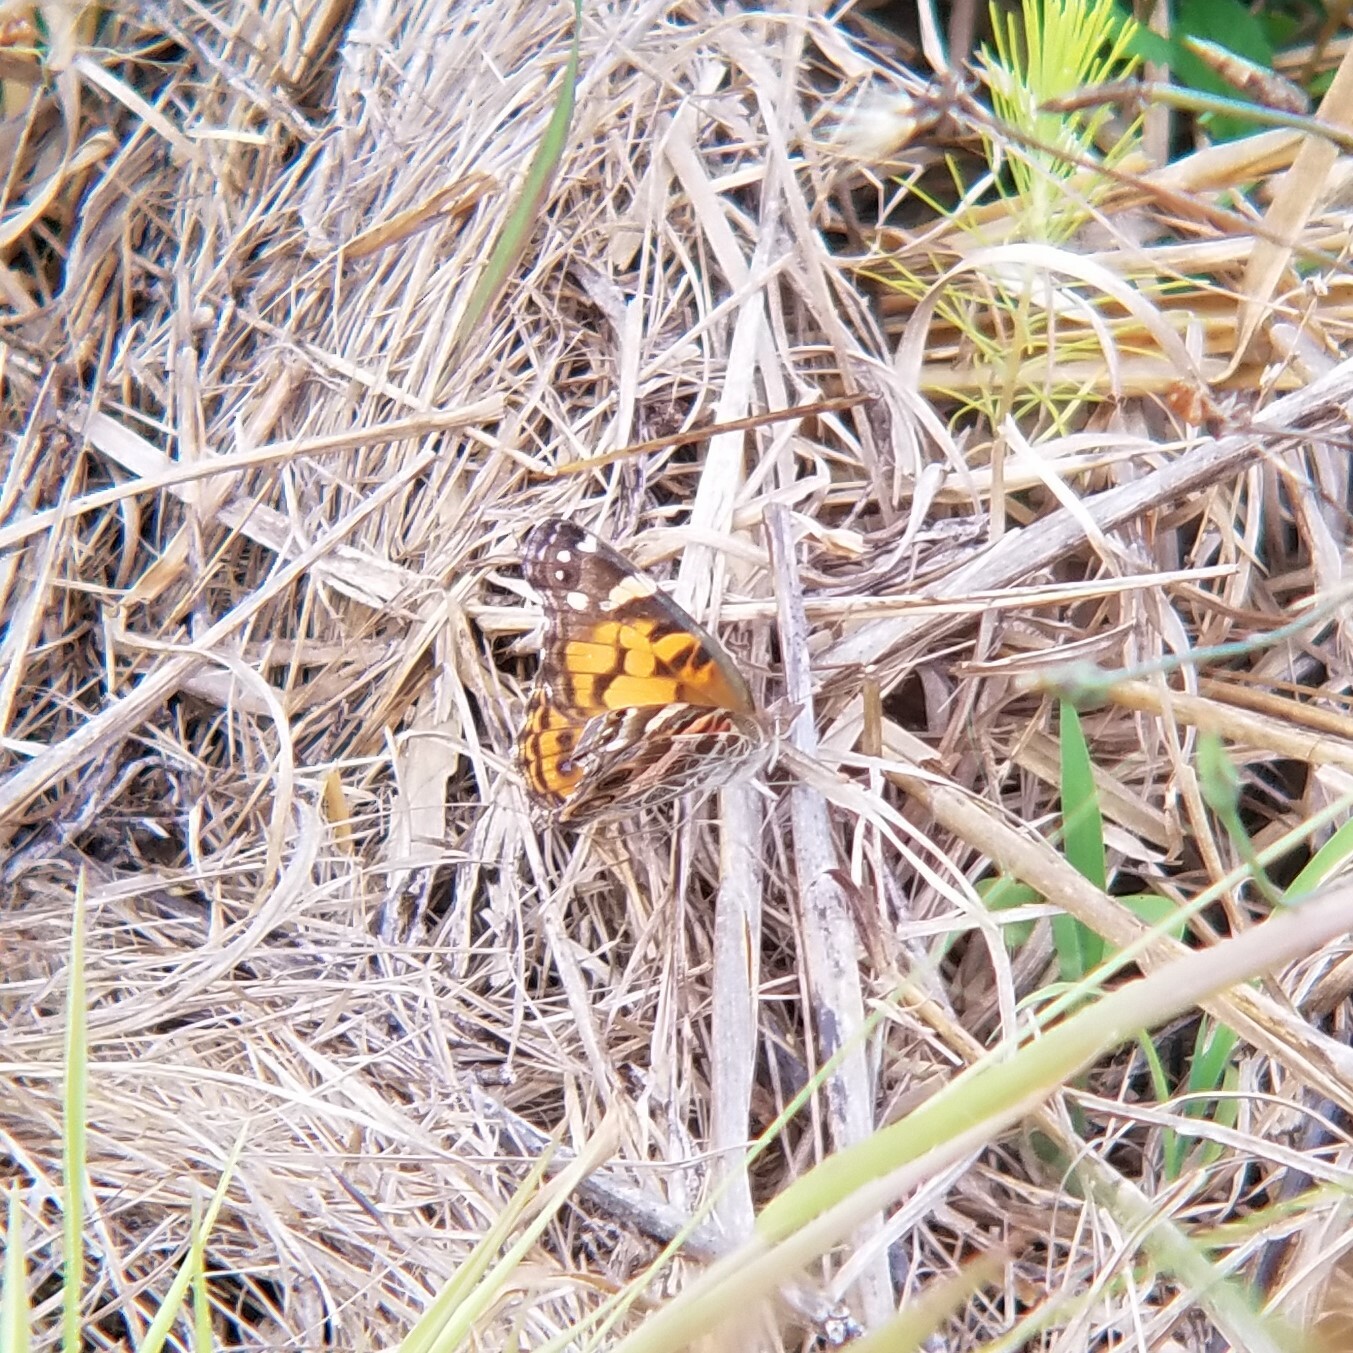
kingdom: Animalia
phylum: Arthropoda
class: Insecta
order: Lepidoptera
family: Nymphalidae
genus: Vanessa
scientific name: Vanessa virginiensis
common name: American lady
